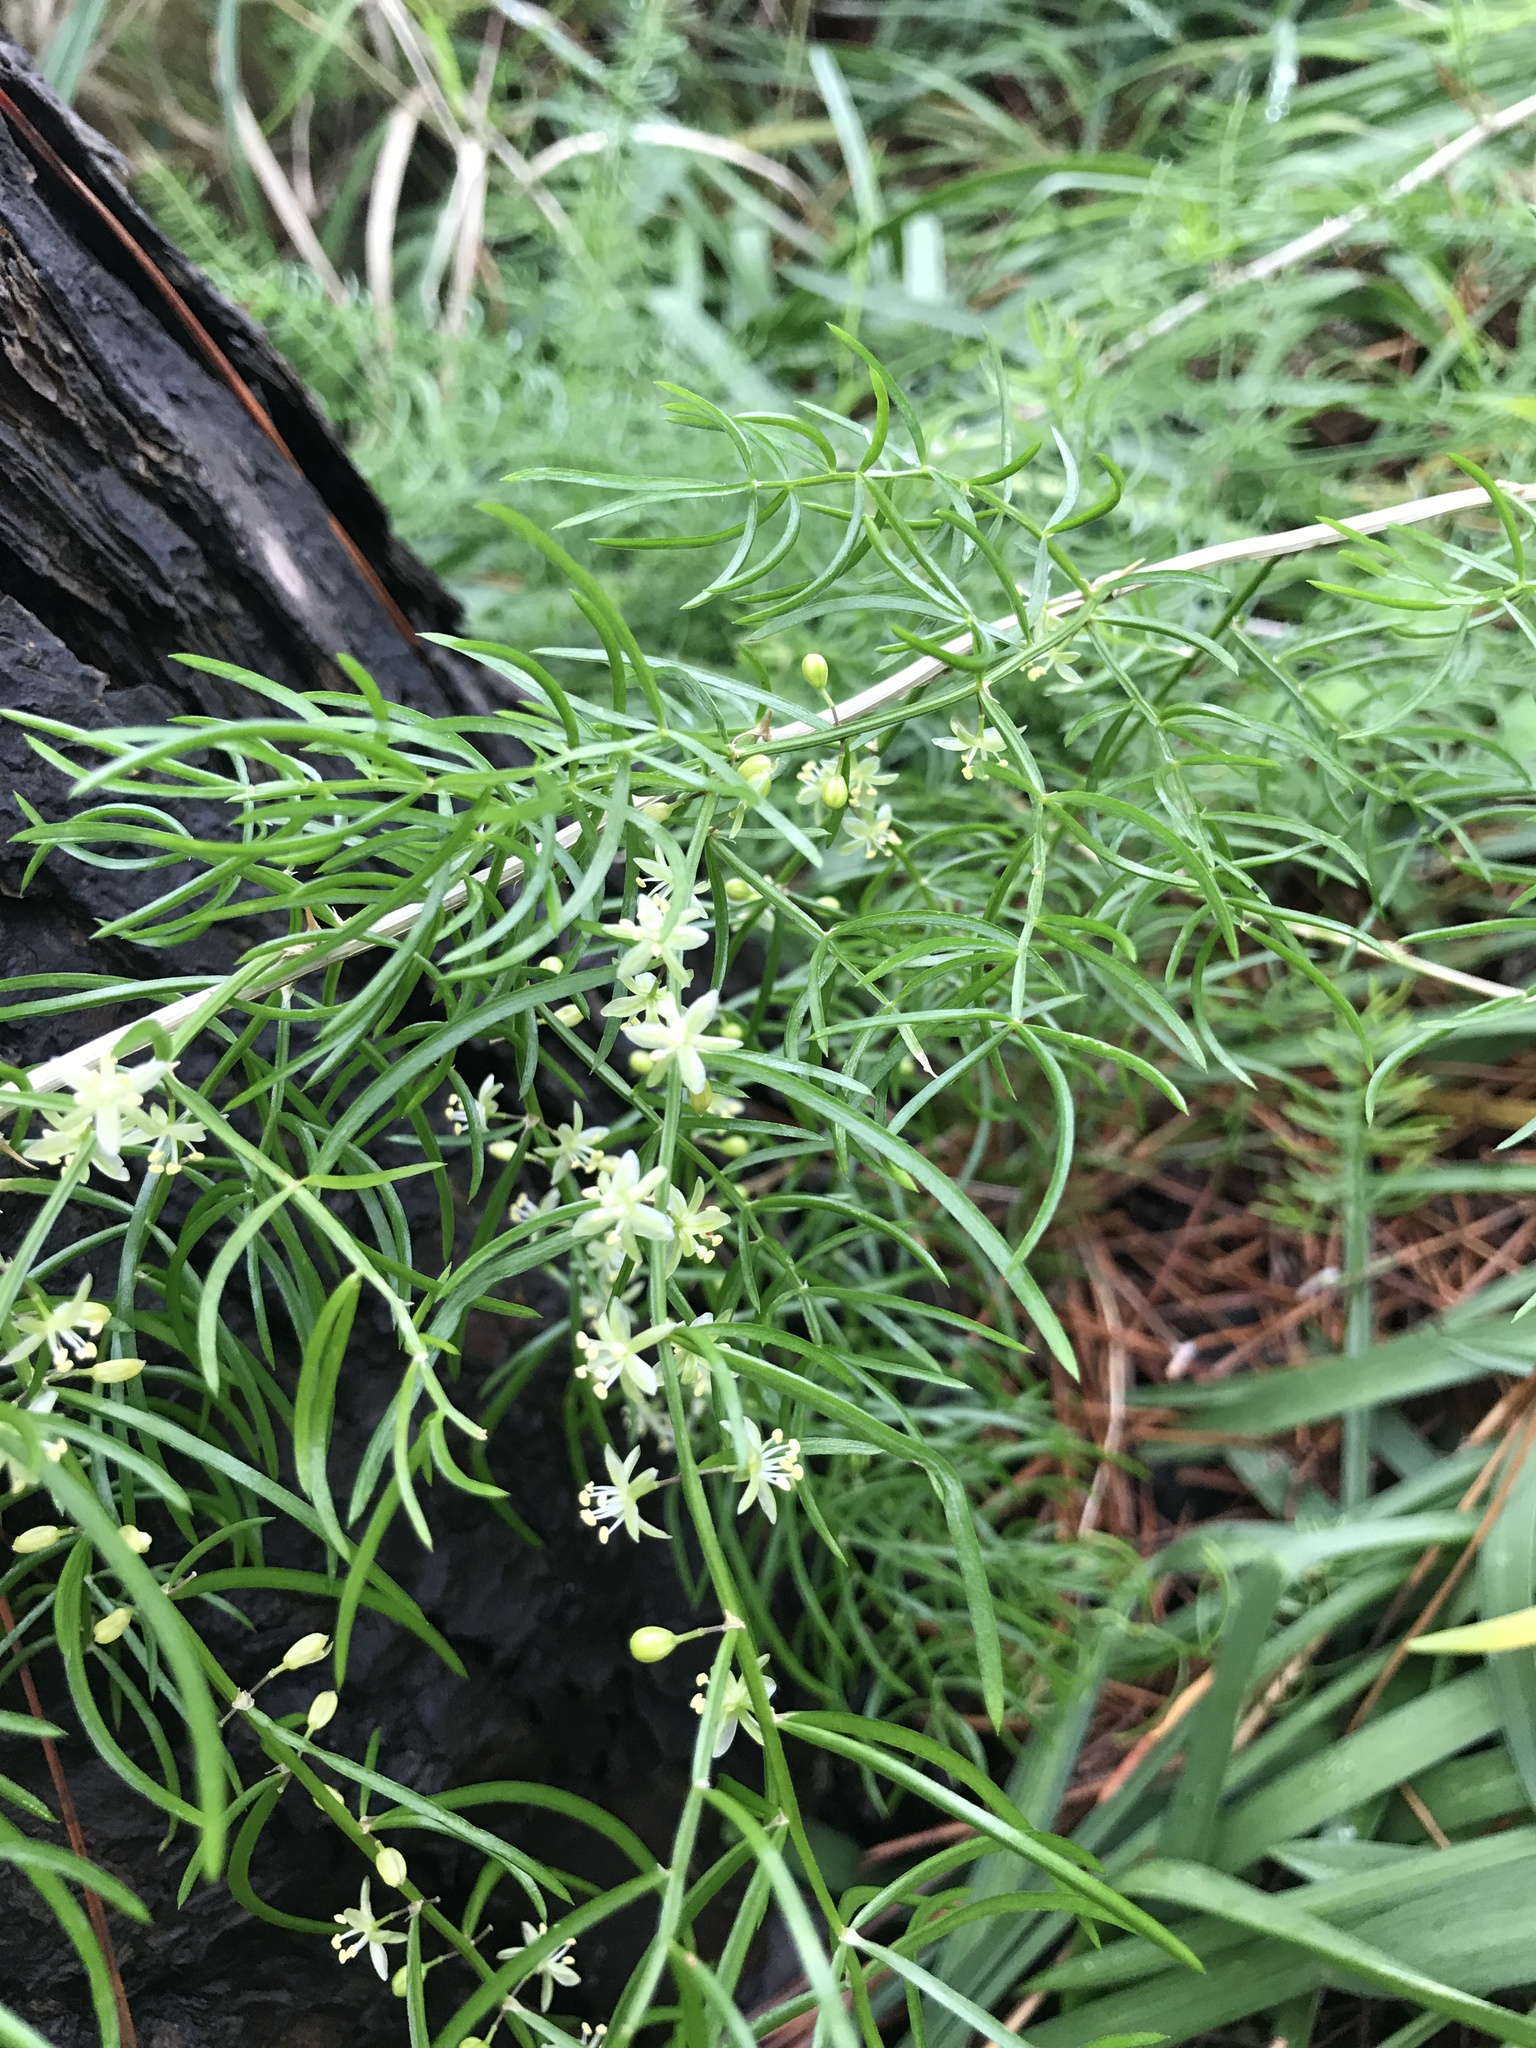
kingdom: Plantae
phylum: Tracheophyta
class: Liliopsida
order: Asparagales
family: Asparagaceae
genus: Asparagus
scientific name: Asparagus cochinchinensis
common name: Chinese asparagus
